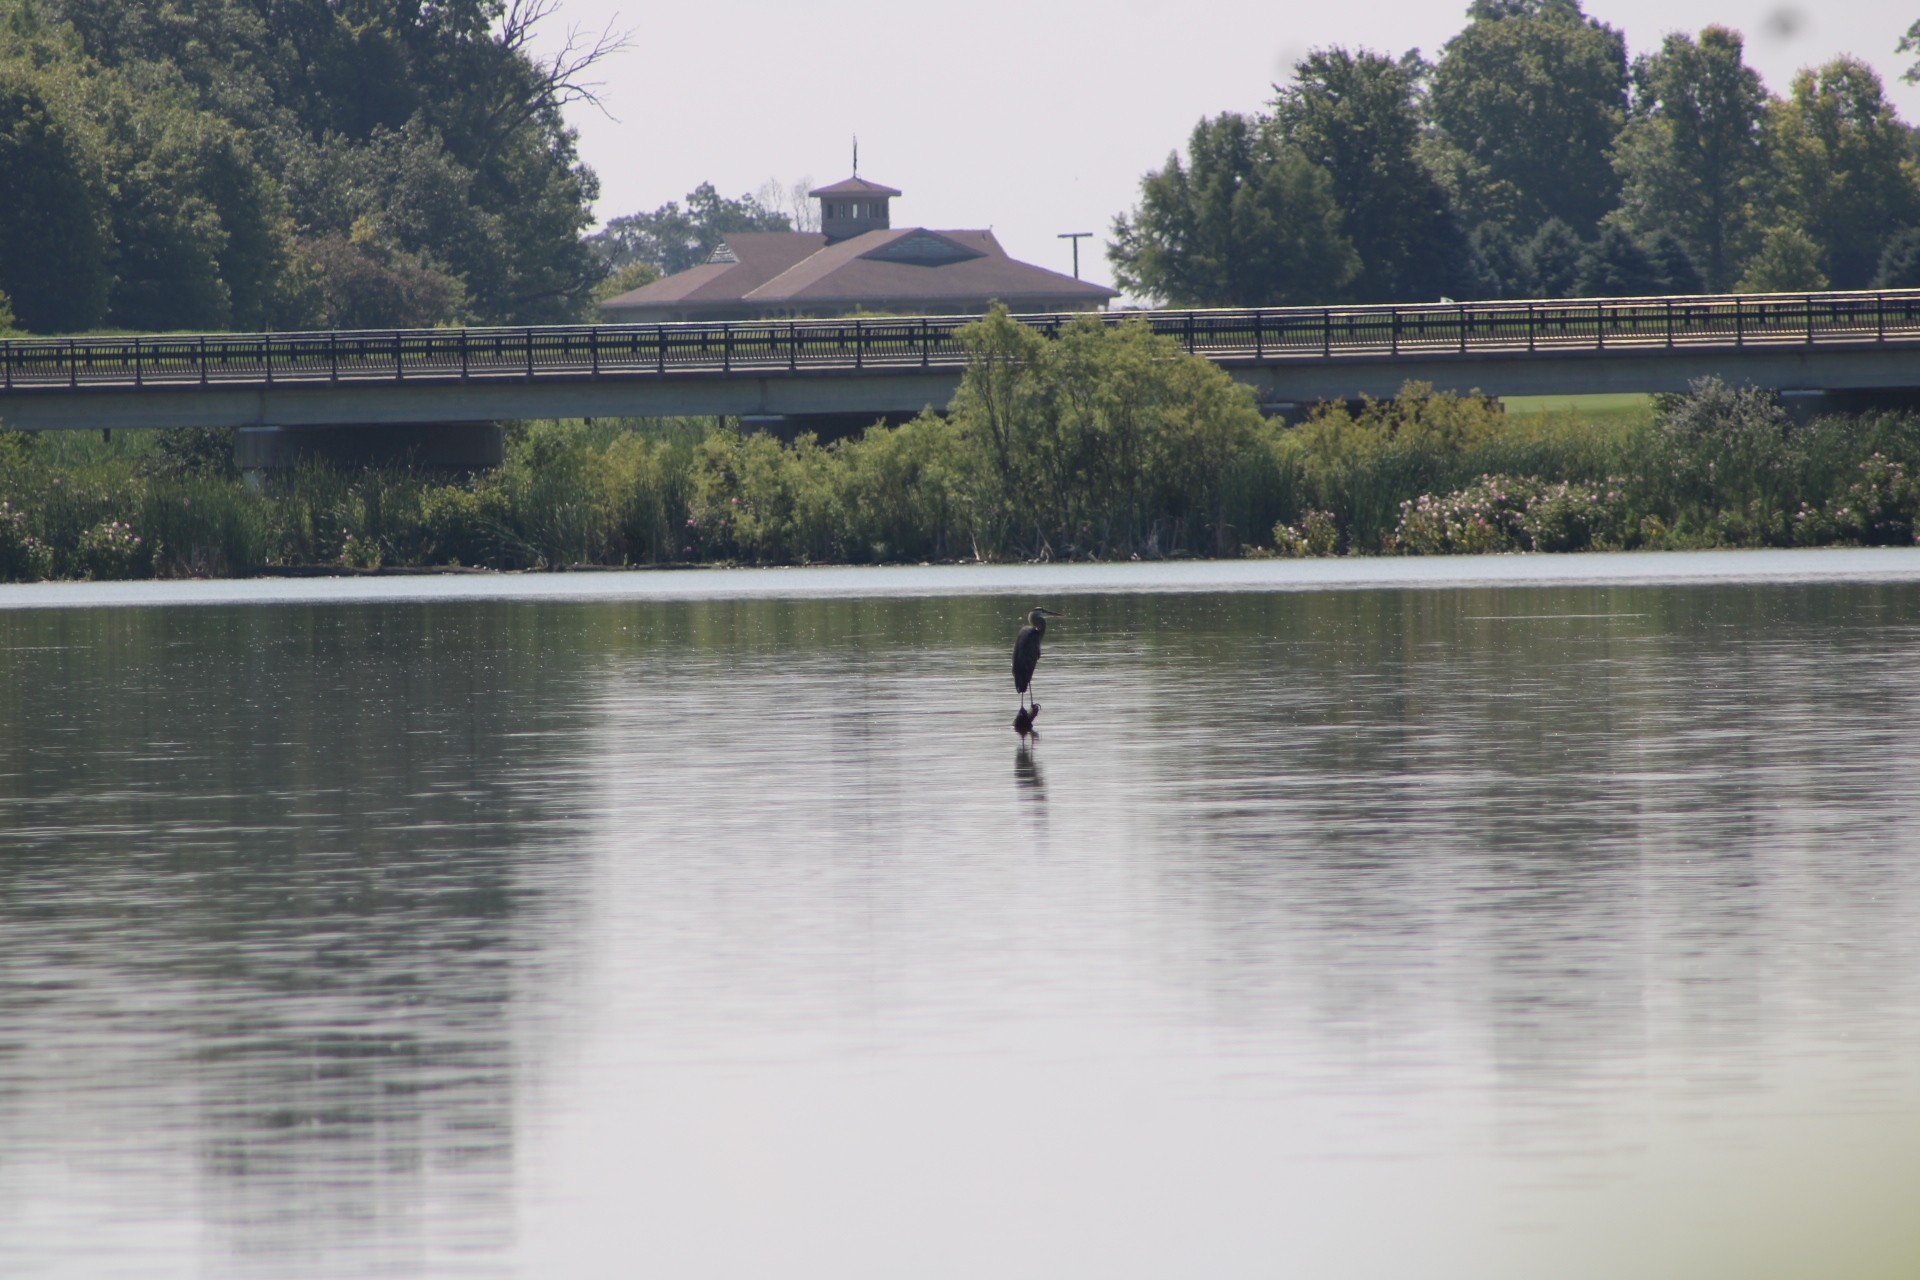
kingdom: Animalia
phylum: Chordata
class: Aves
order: Pelecaniformes
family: Ardeidae
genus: Ardea
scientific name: Ardea herodias
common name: Great blue heron
